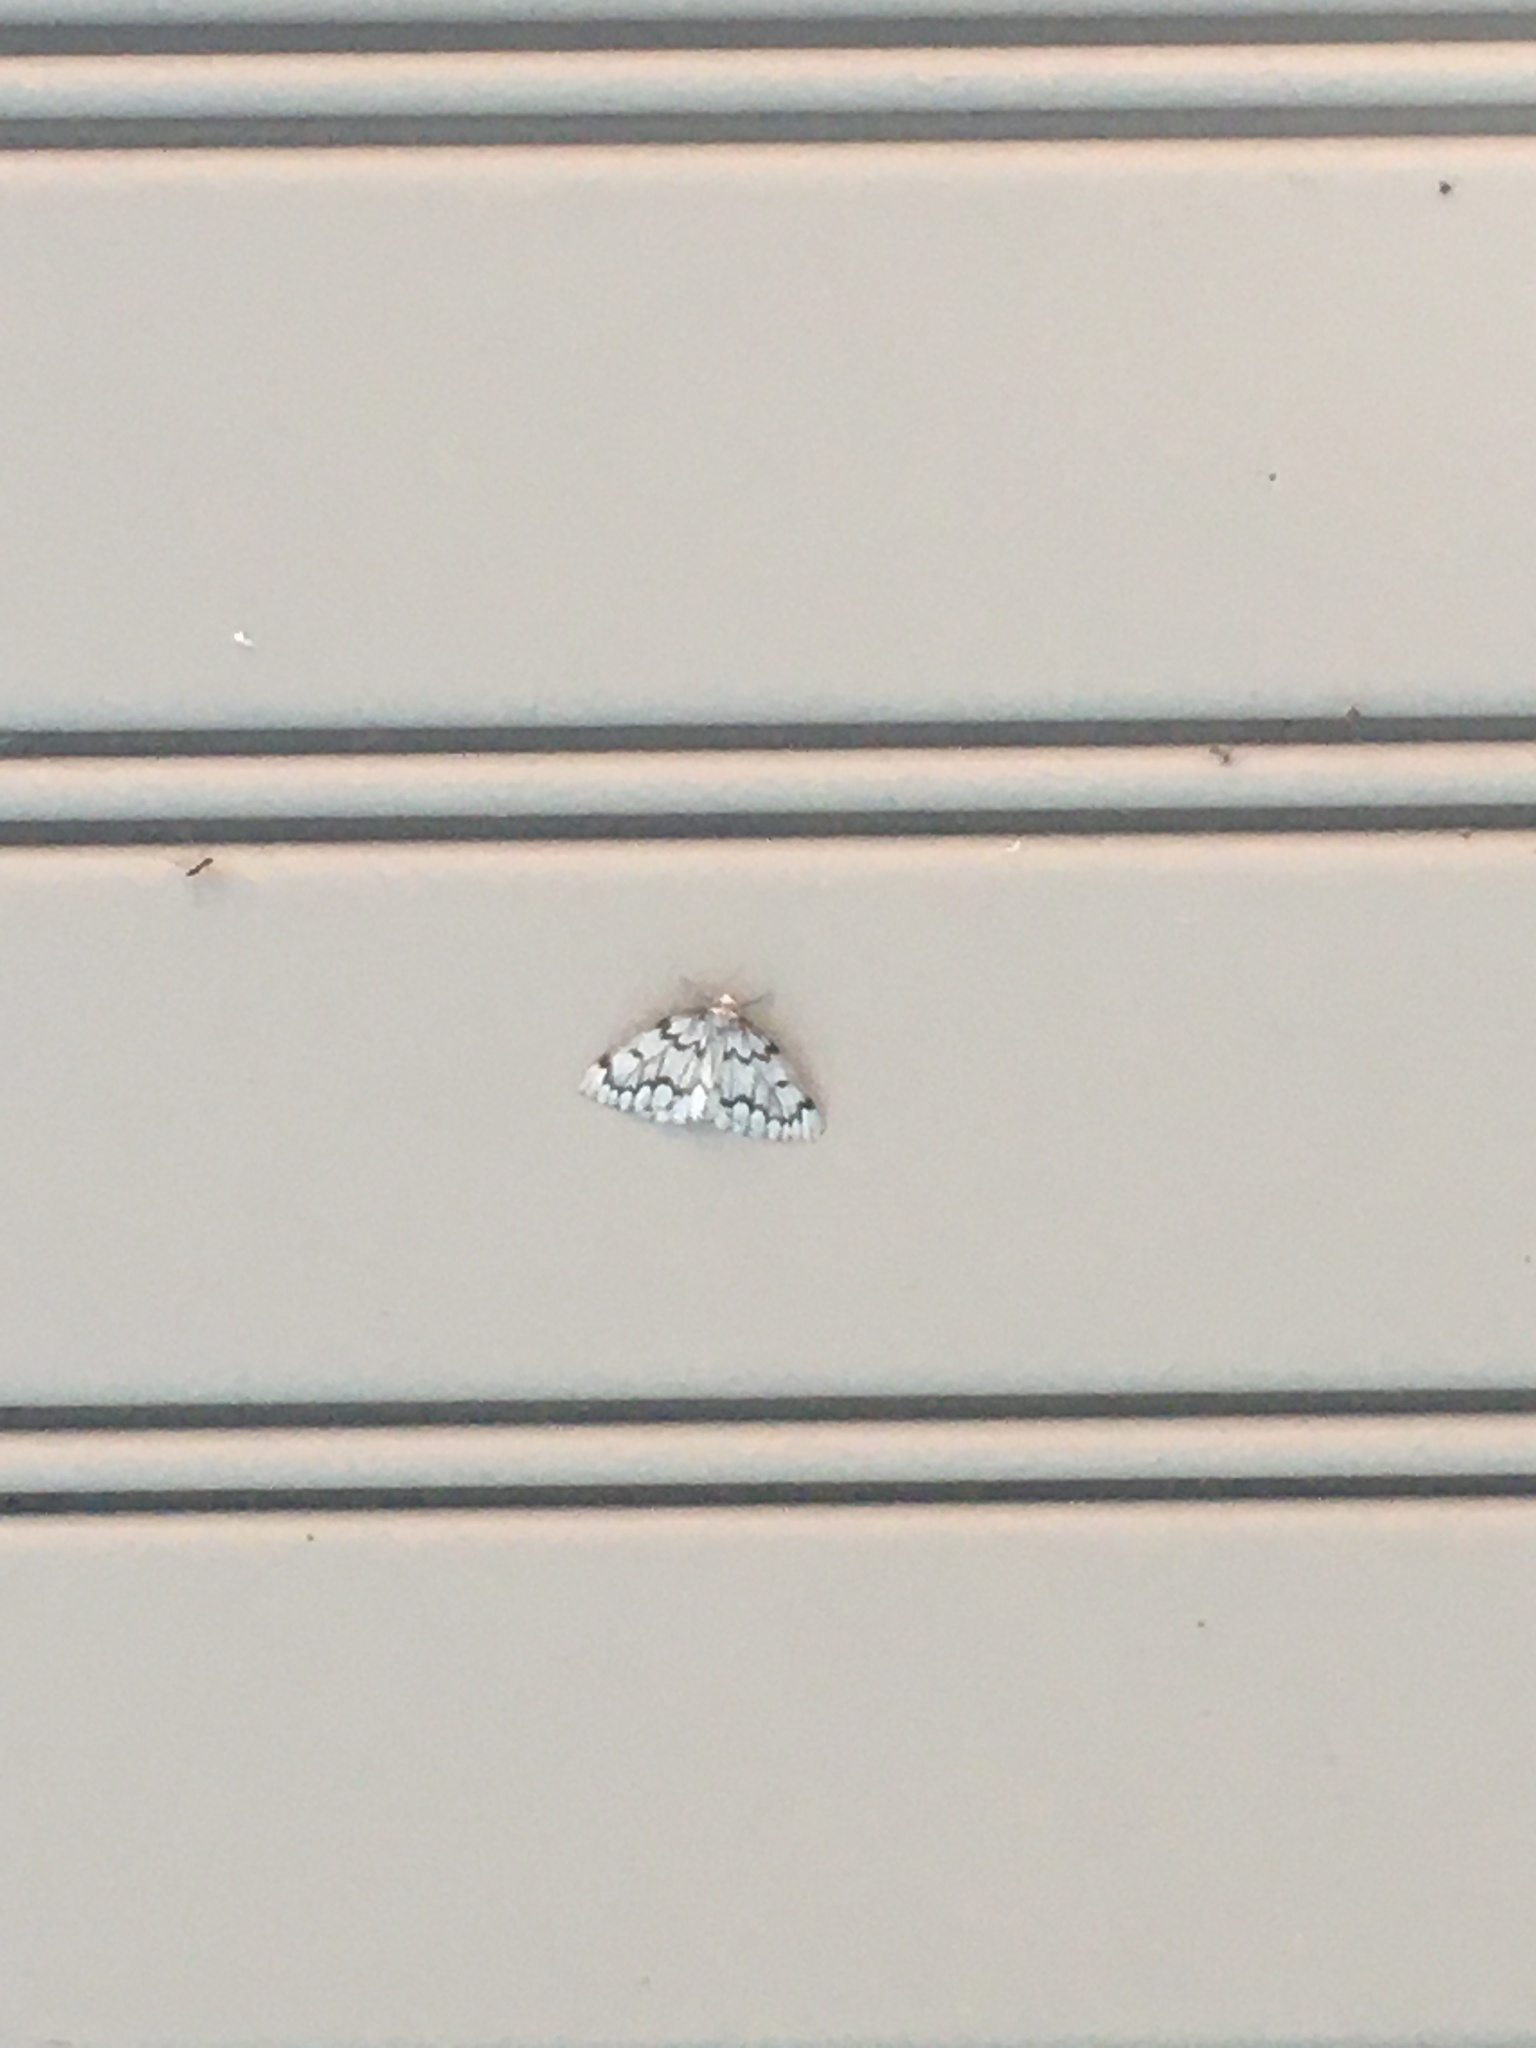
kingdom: Animalia
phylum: Arthropoda
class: Insecta
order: Lepidoptera
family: Geometridae
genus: Nepytia
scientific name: Nepytia canosaria
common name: False hemlock looper
